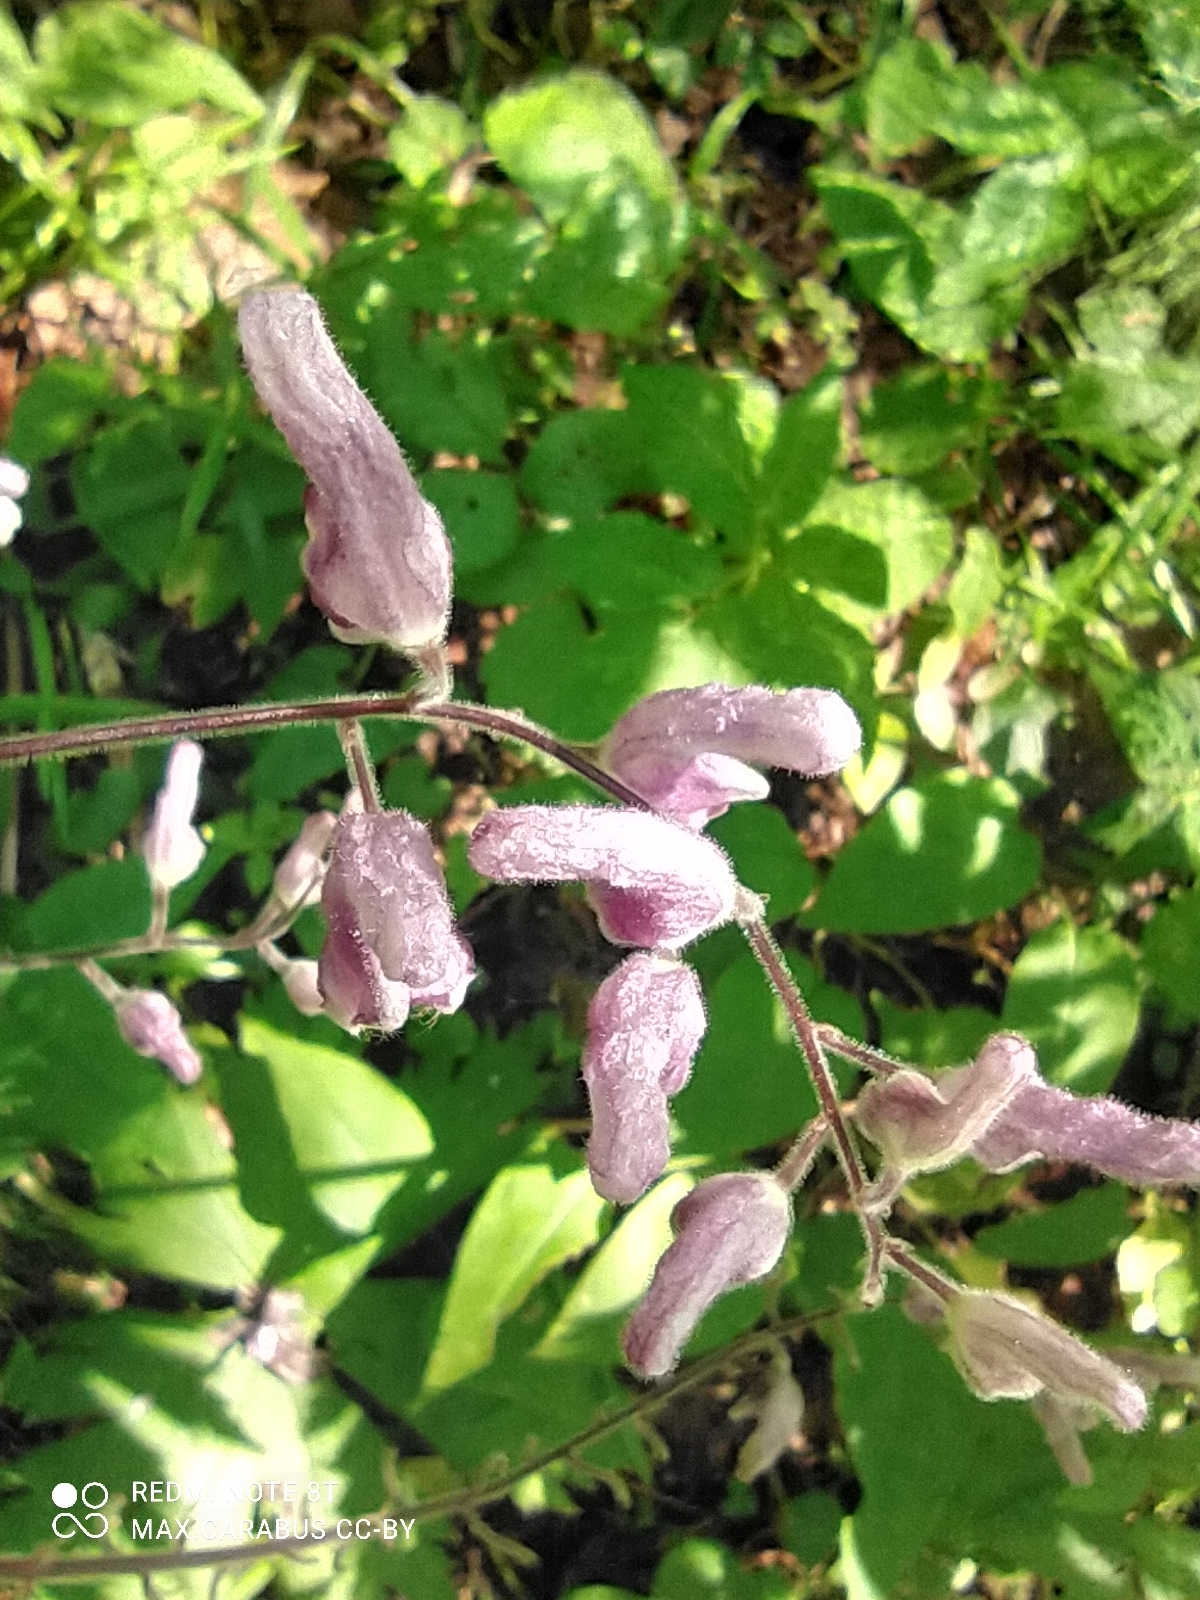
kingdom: Plantae
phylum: Tracheophyta
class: Magnoliopsida
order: Ranunculales
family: Ranunculaceae
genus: Aconitum
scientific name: Aconitum septentrionale
